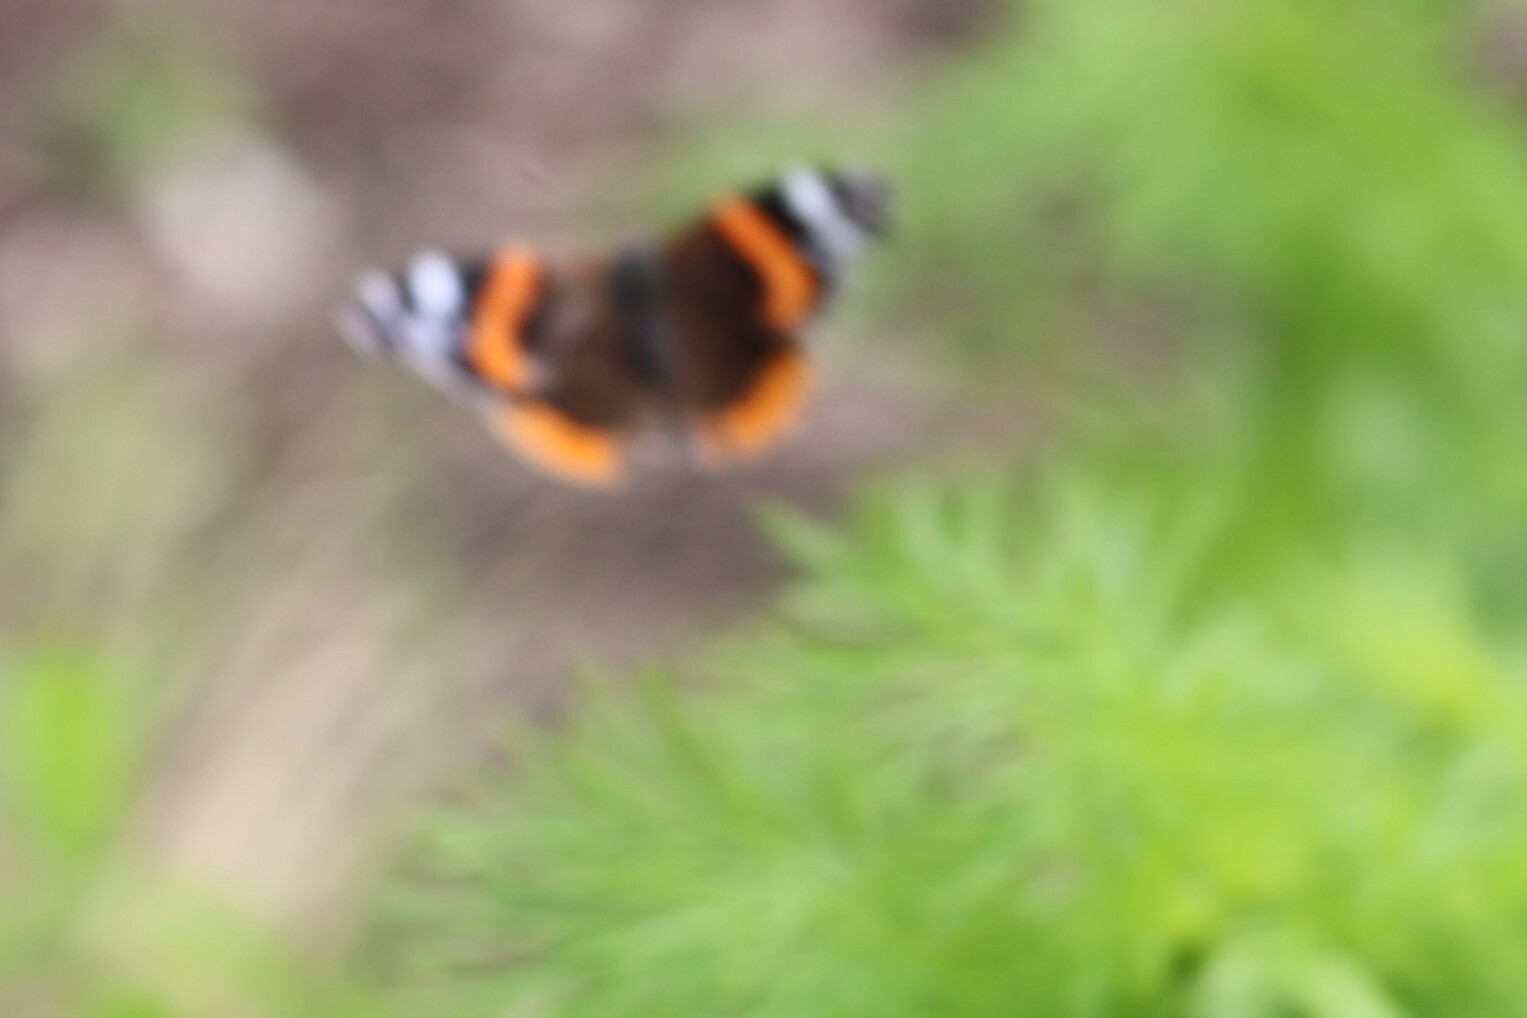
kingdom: Animalia
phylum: Arthropoda
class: Insecta
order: Lepidoptera
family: Nymphalidae
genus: Vanessa
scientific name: Vanessa atalanta
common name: Red admiral
